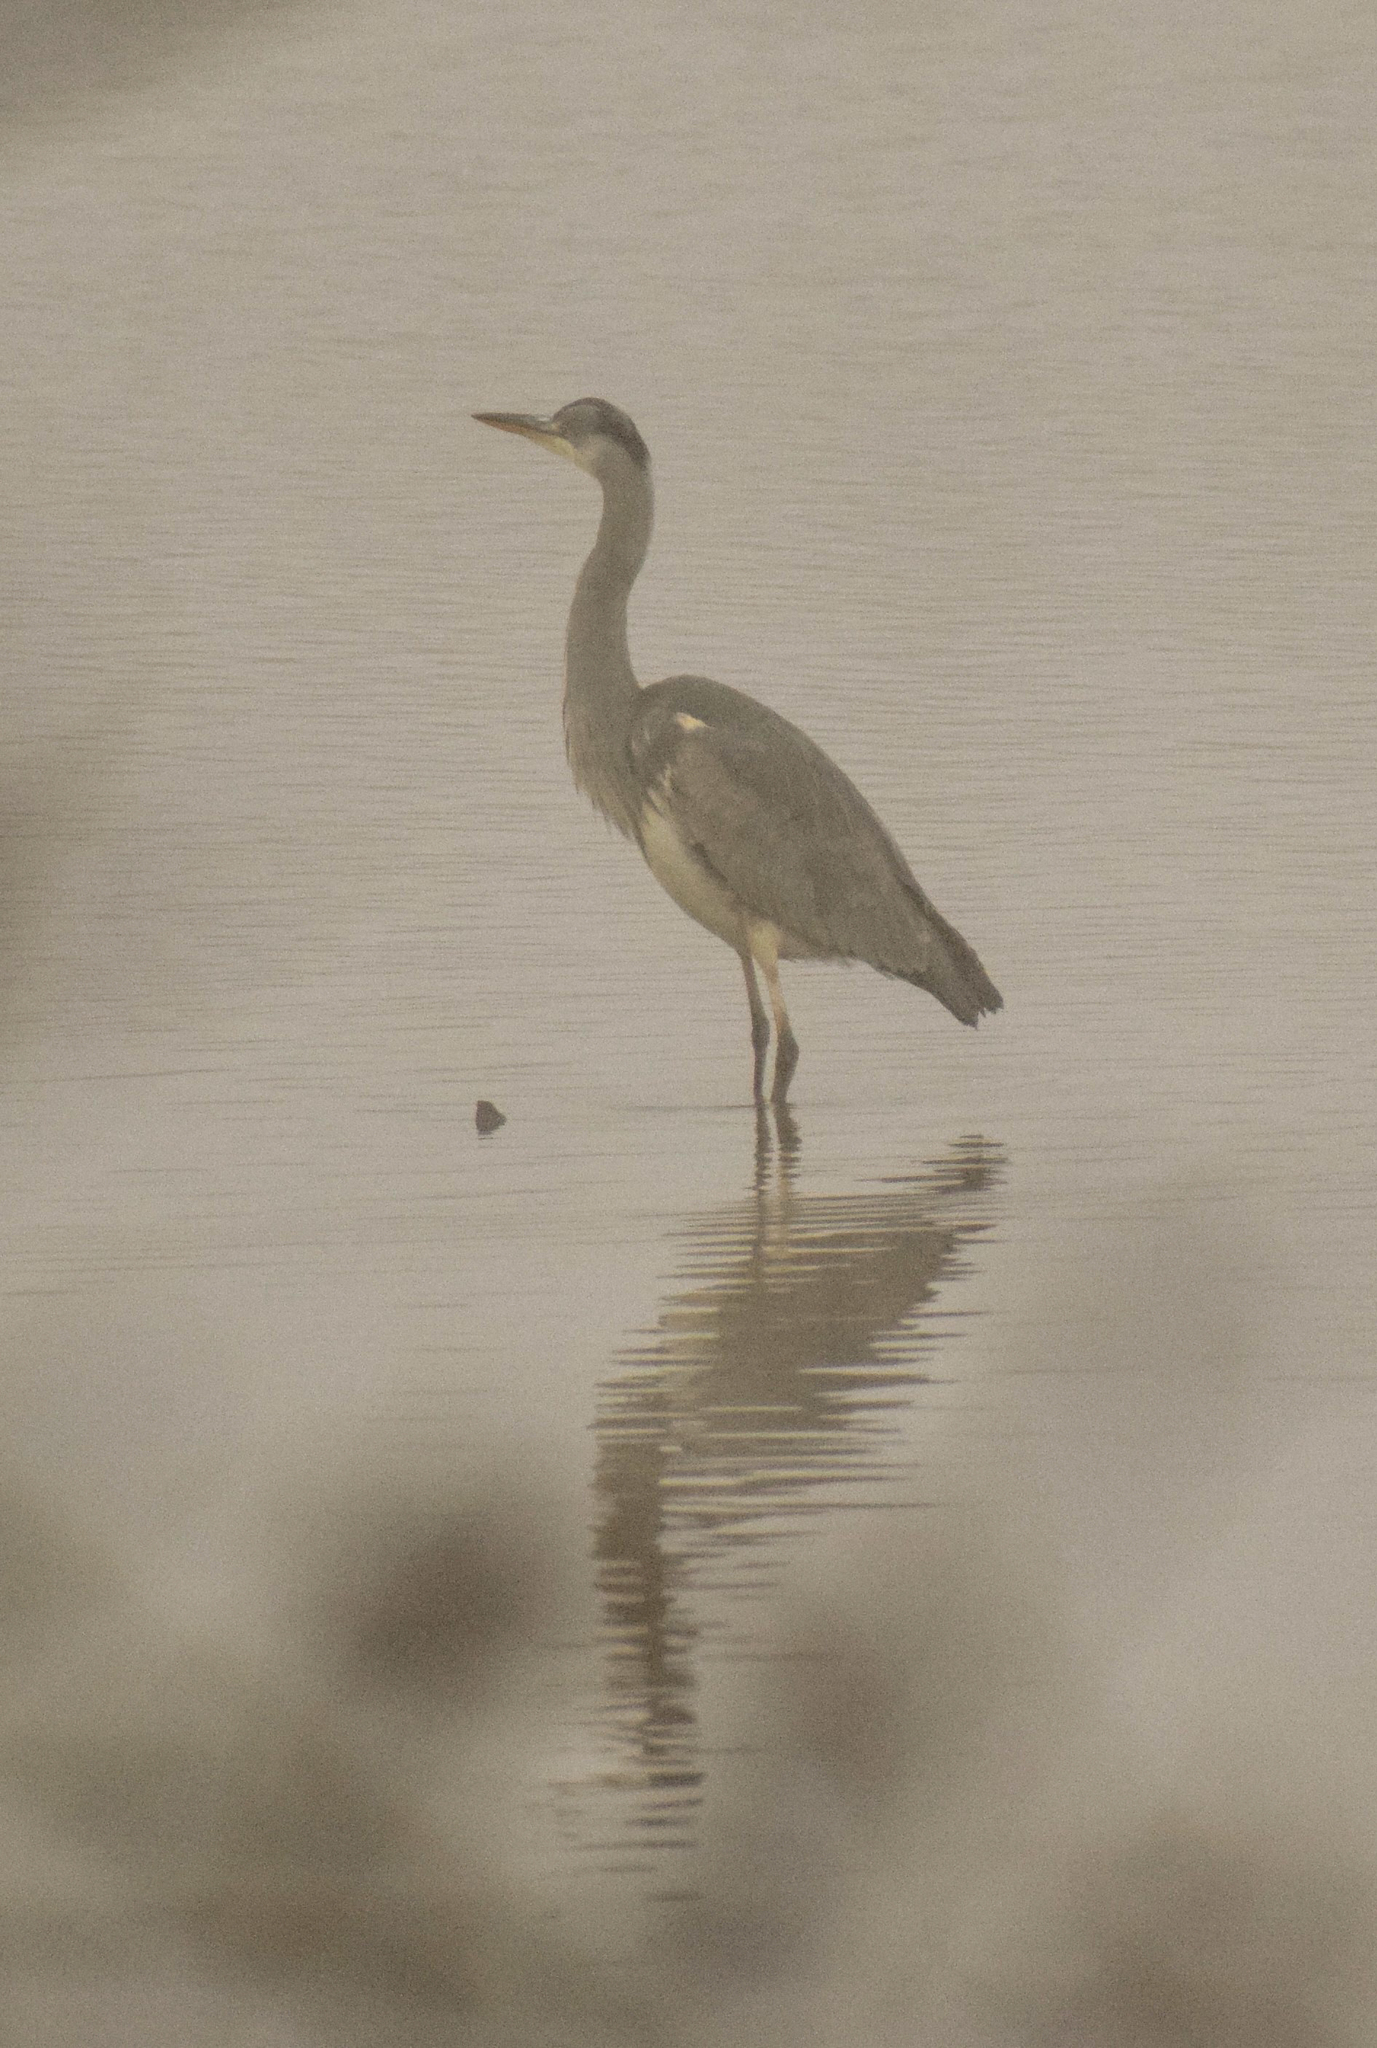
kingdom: Animalia
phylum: Chordata
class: Aves
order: Pelecaniformes
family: Ardeidae
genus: Ardea
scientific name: Ardea cinerea
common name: Grey heron
